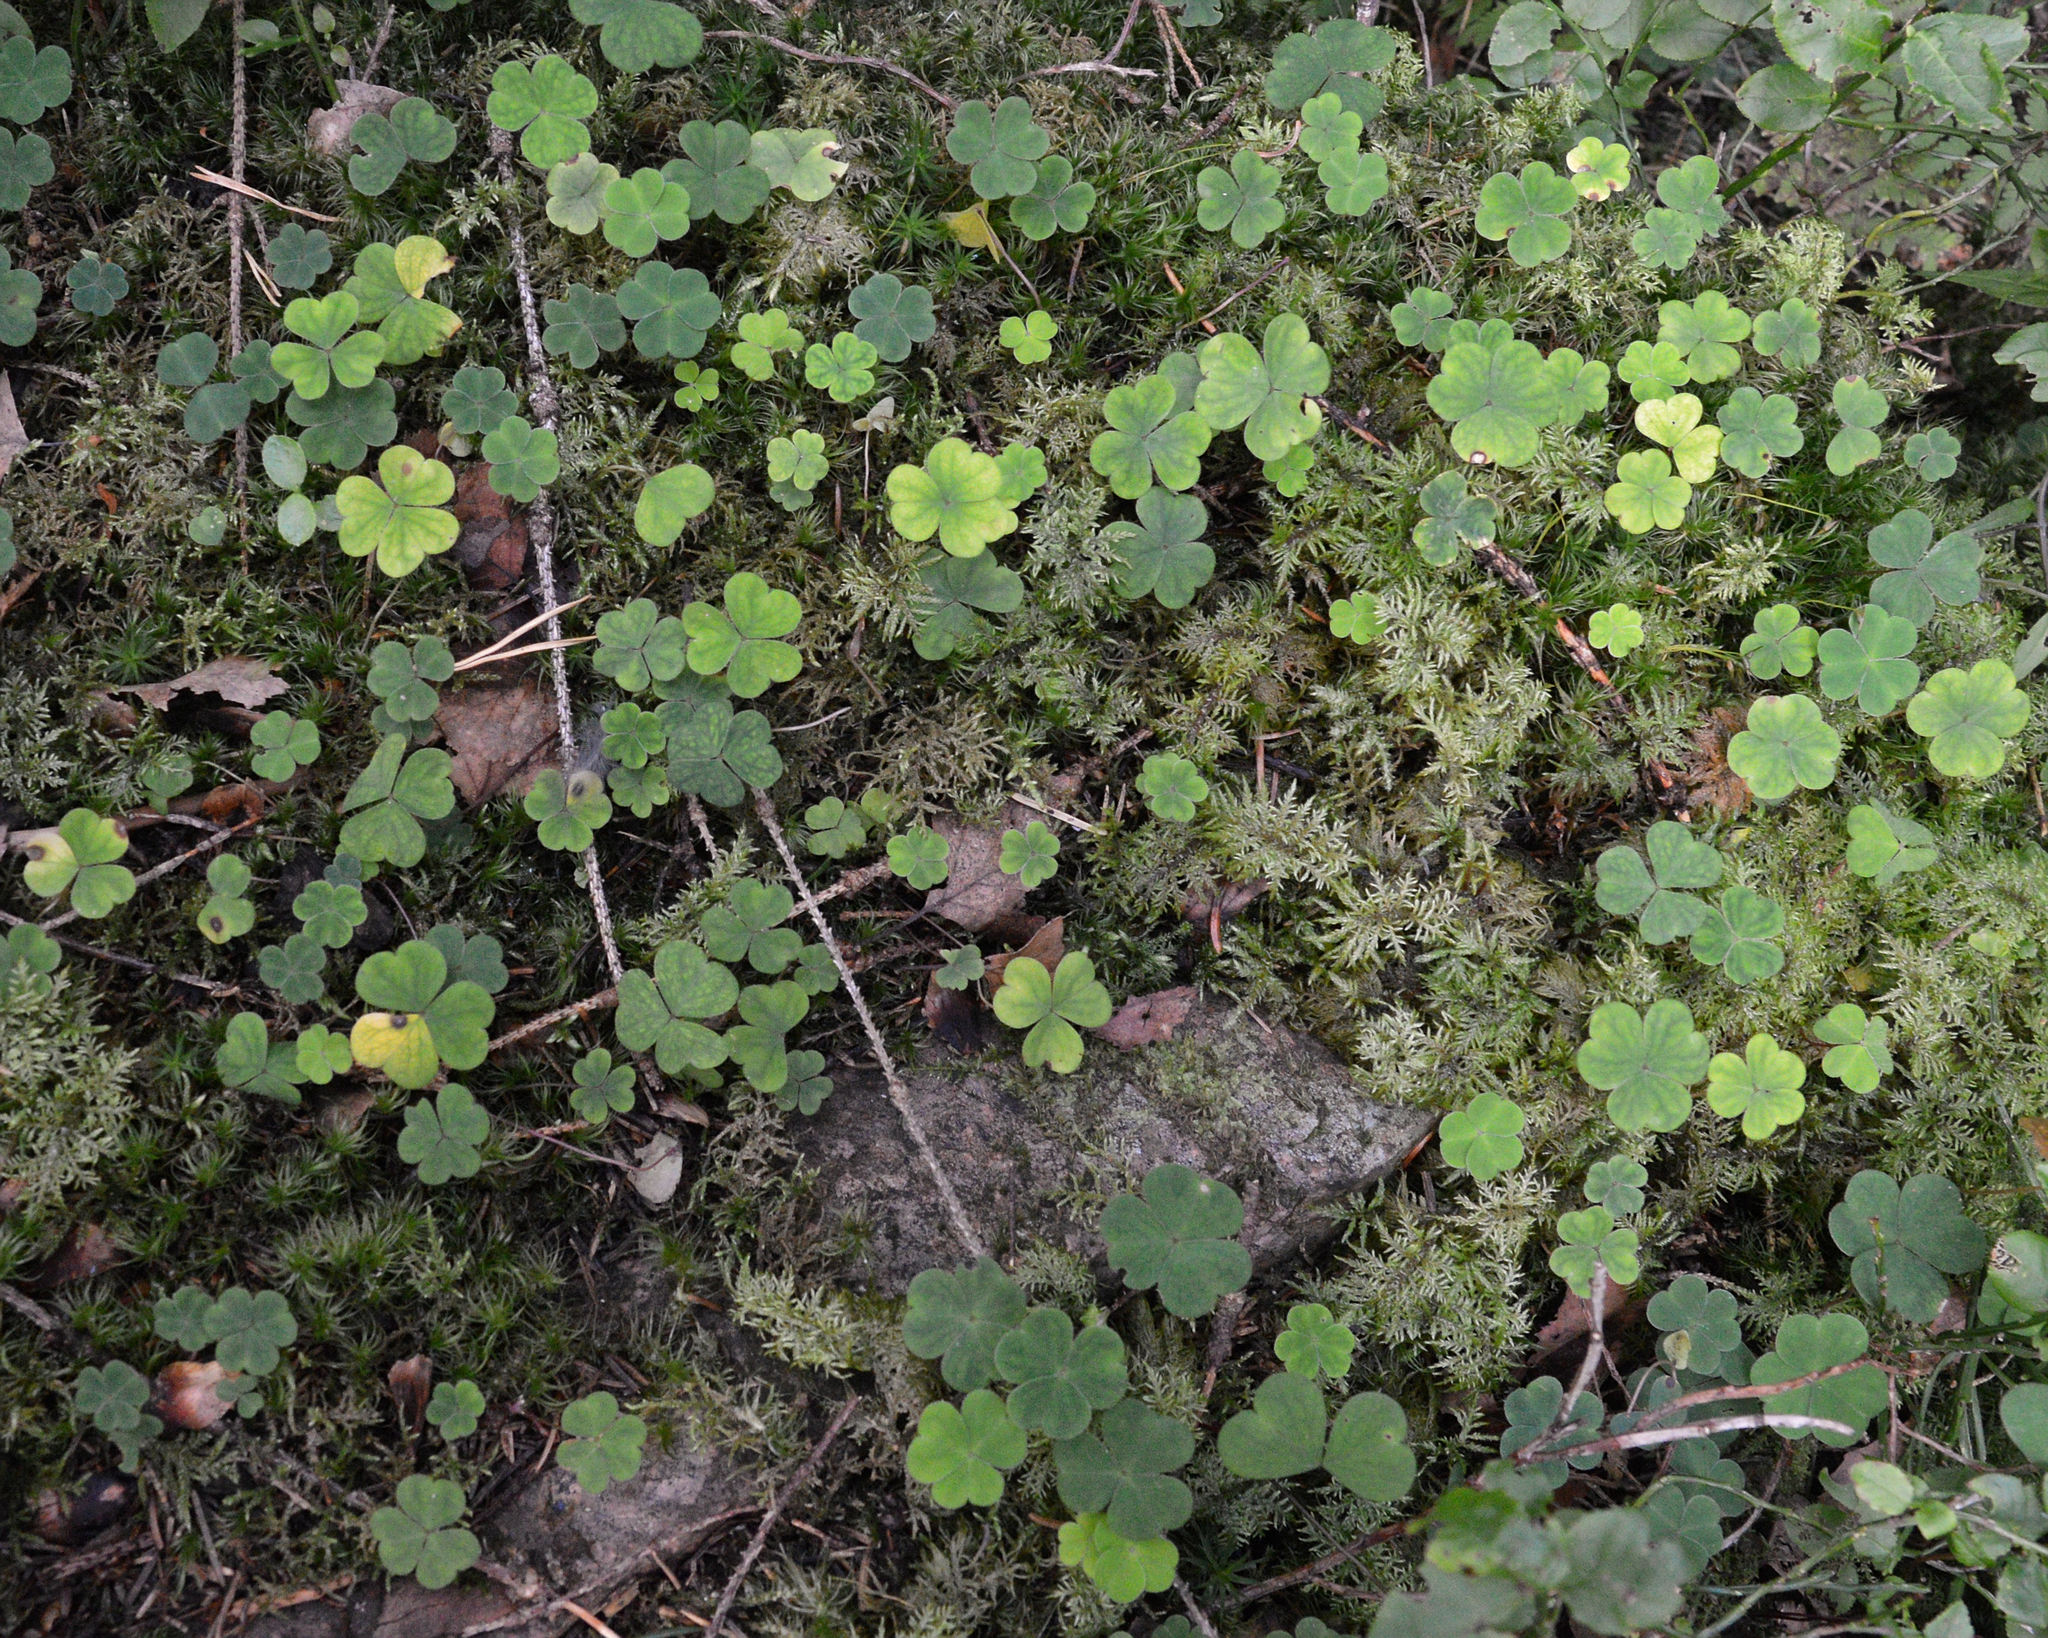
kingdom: Plantae
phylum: Tracheophyta
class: Magnoliopsida
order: Oxalidales
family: Oxalidaceae
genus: Oxalis
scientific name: Oxalis acetosella
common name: Wood-sorrel
